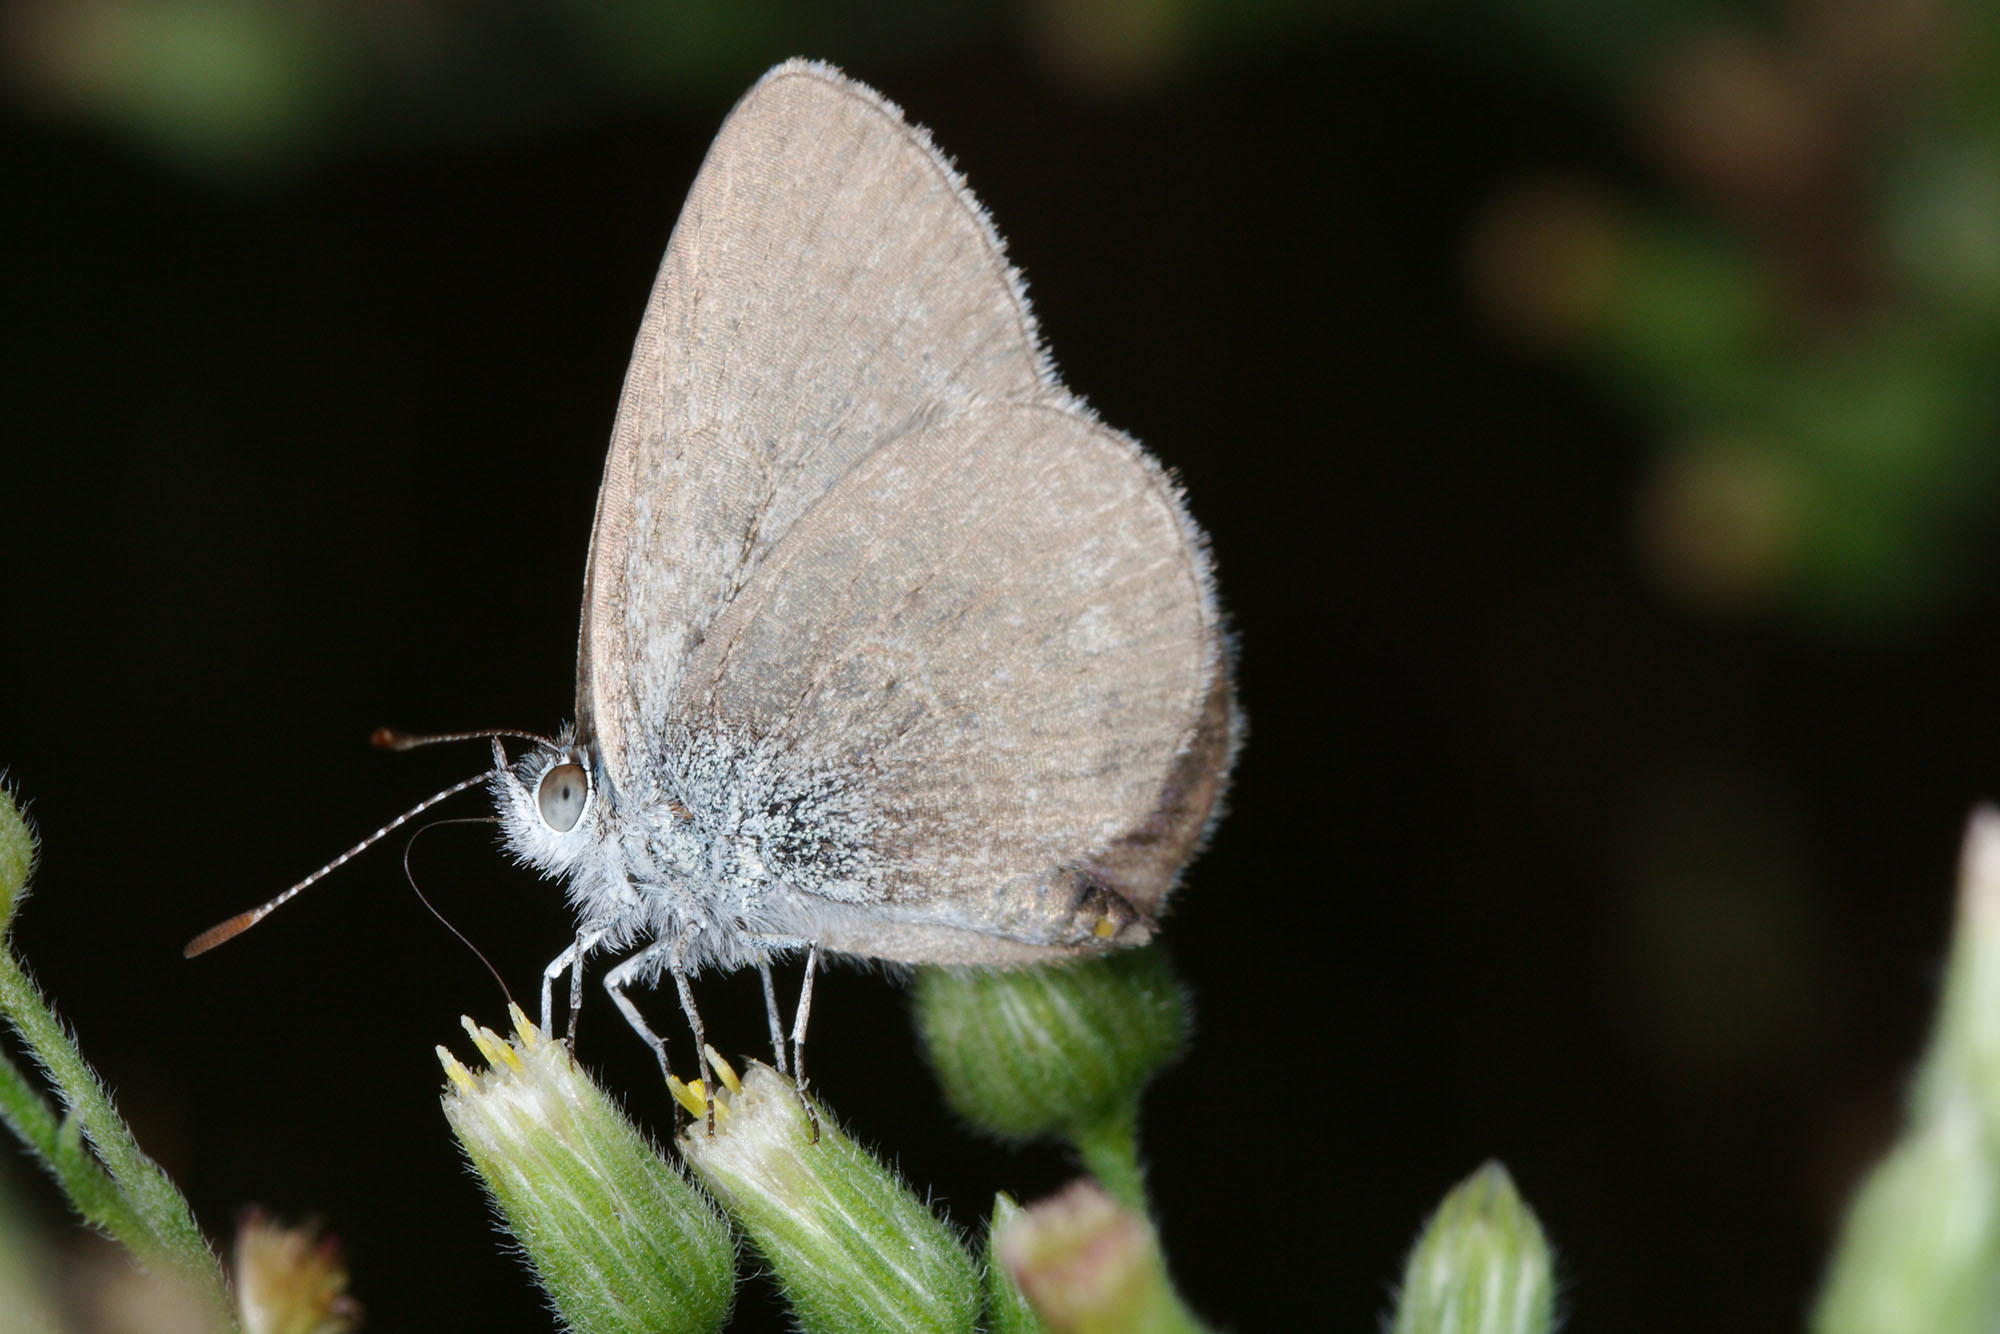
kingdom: Animalia
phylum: Arthropoda
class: Insecta
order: Lepidoptera
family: Lycaenidae
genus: Zizina
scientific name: Zizina labradus
